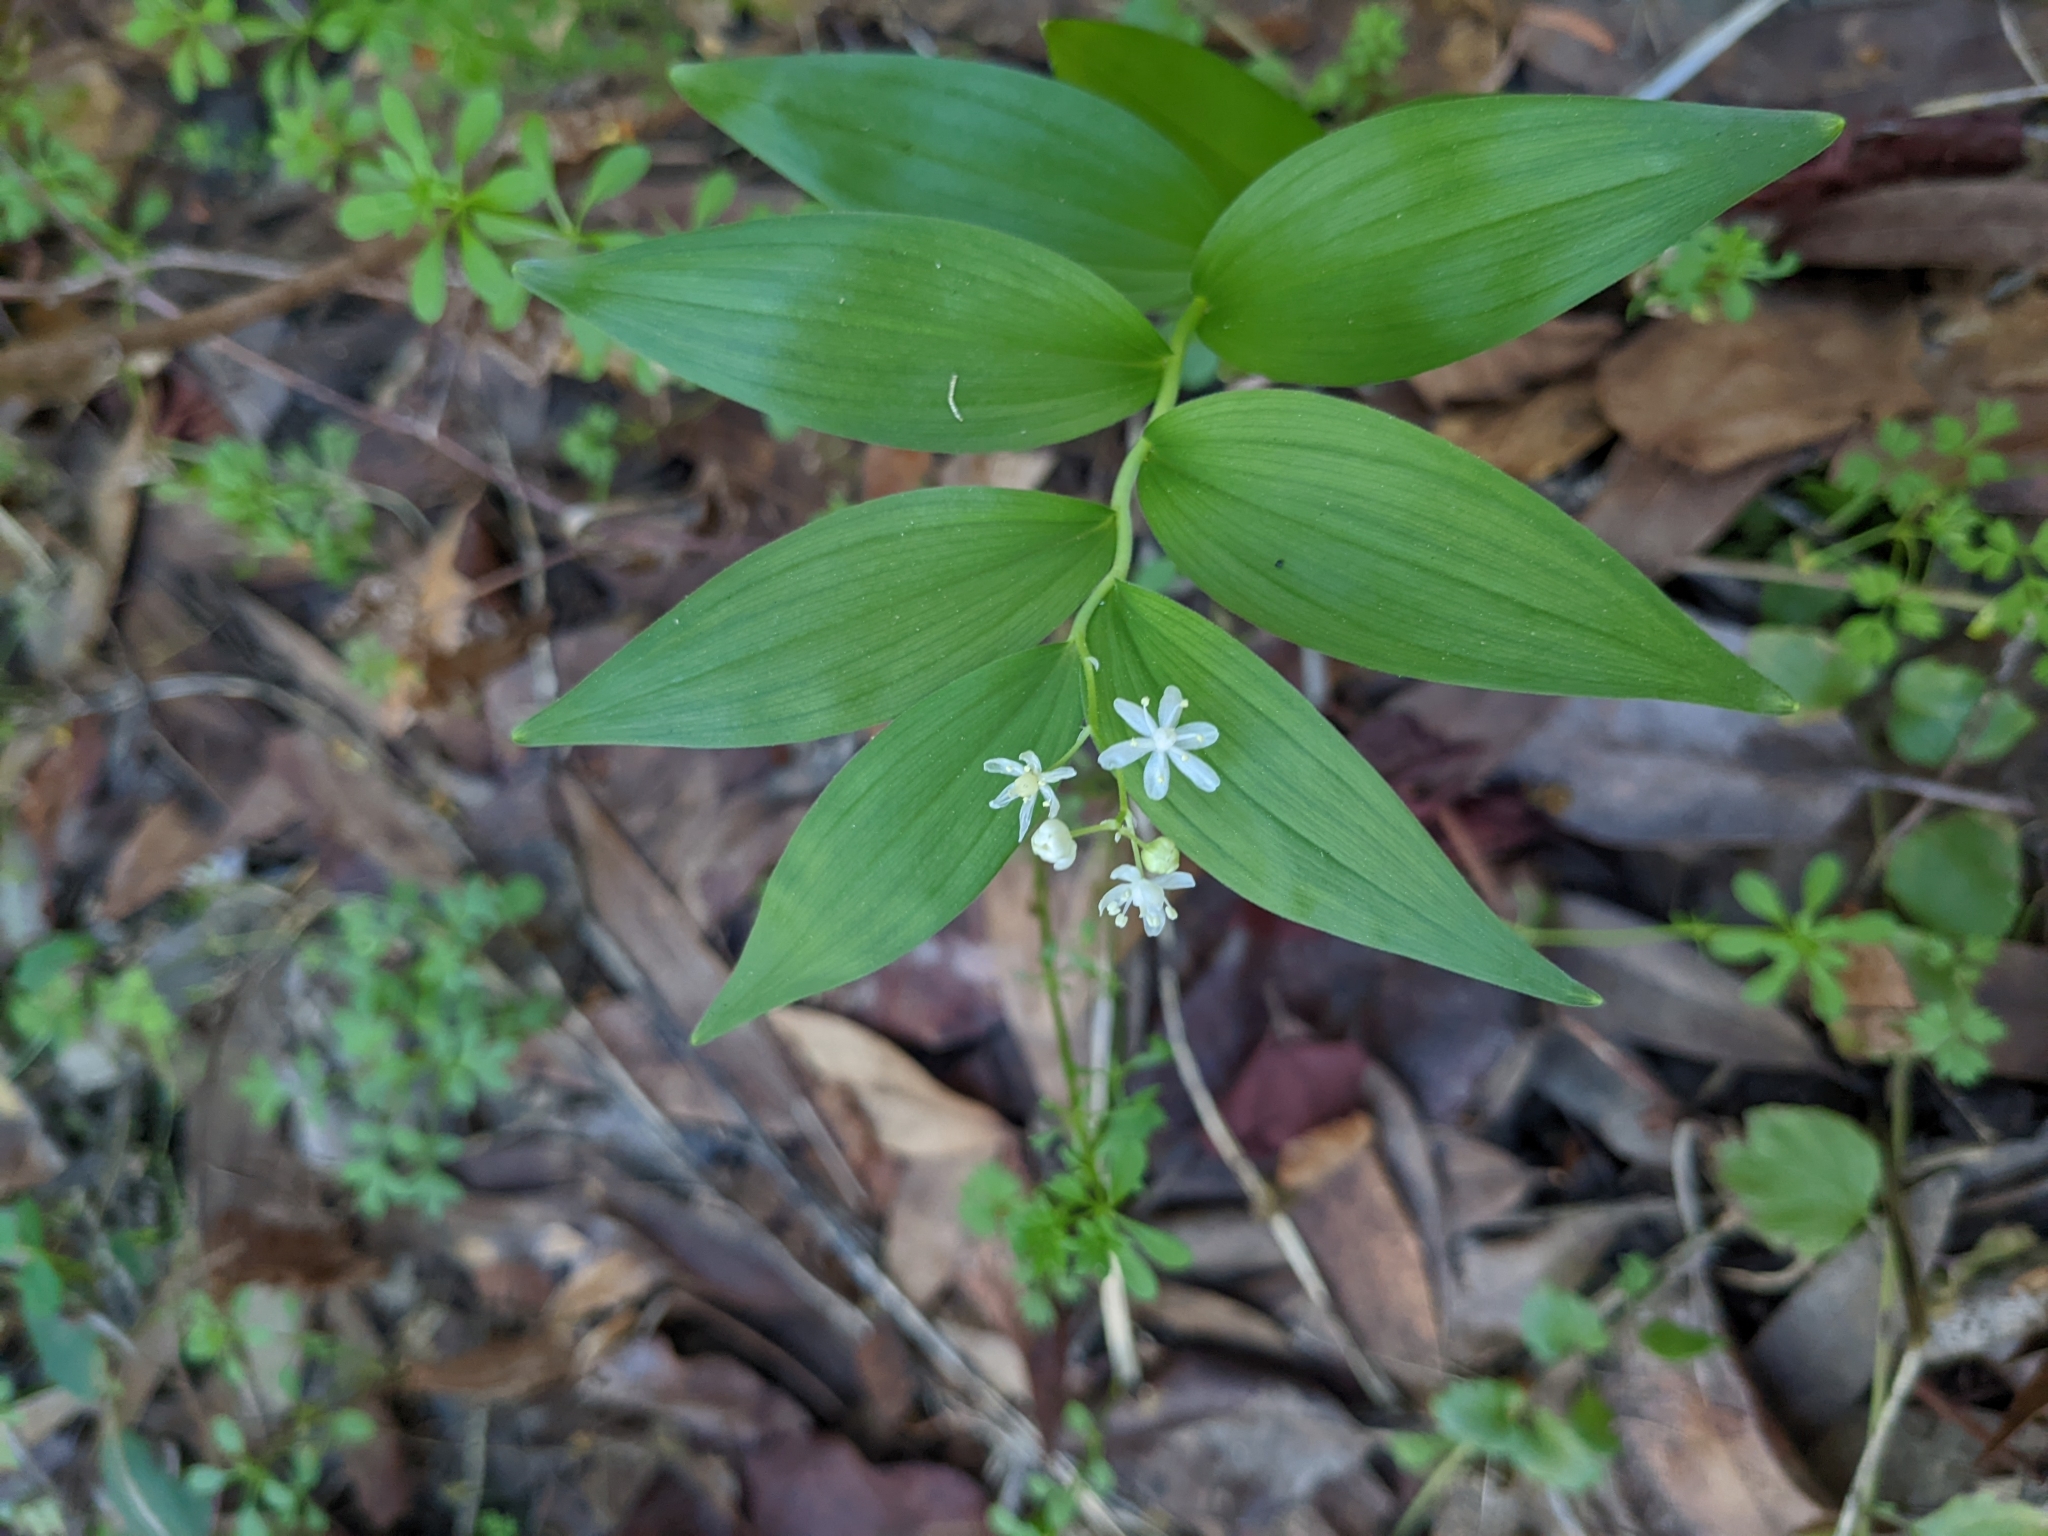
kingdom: Plantae
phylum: Tracheophyta
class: Liliopsida
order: Asparagales
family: Asparagaceae
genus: Maianthemum
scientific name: Maianthemum stellatum
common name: Little false solomon's seal
